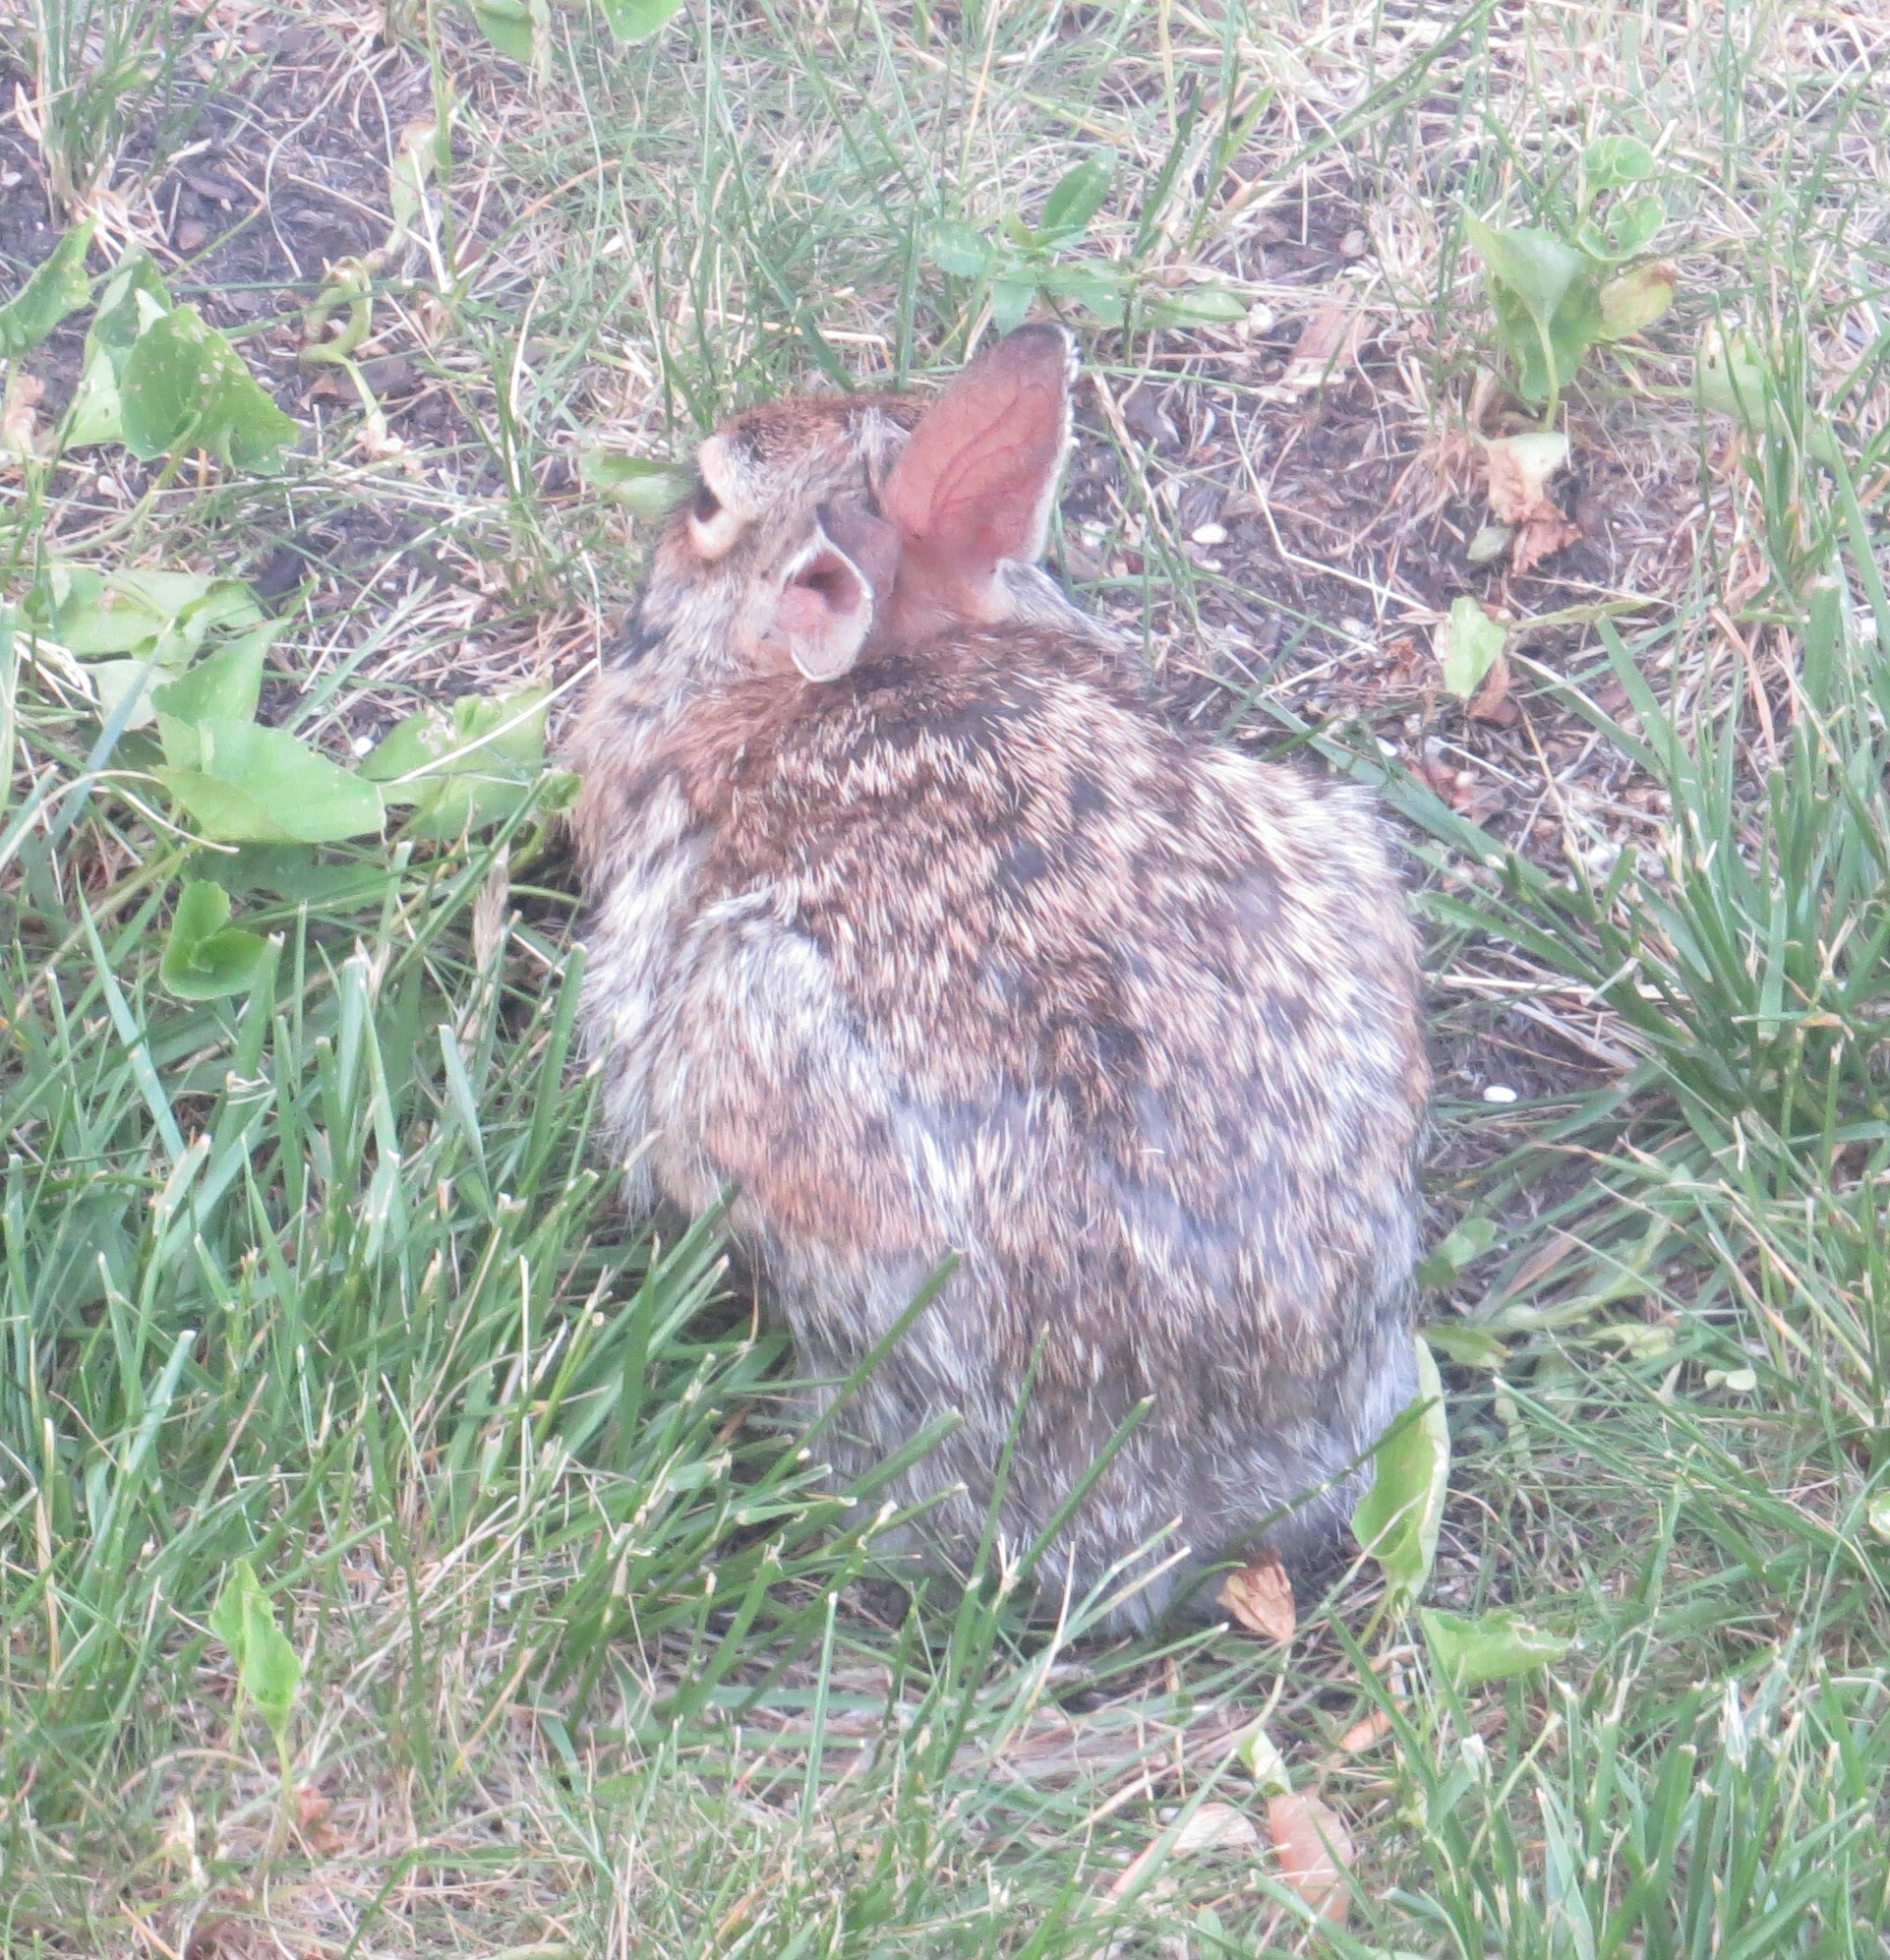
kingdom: Animalia
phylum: Chordata
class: Mammalia
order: Lagomorpha
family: Leporidae
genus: Sylvilagus
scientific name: Sylvilagus floridanus
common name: Eastern cottontail
